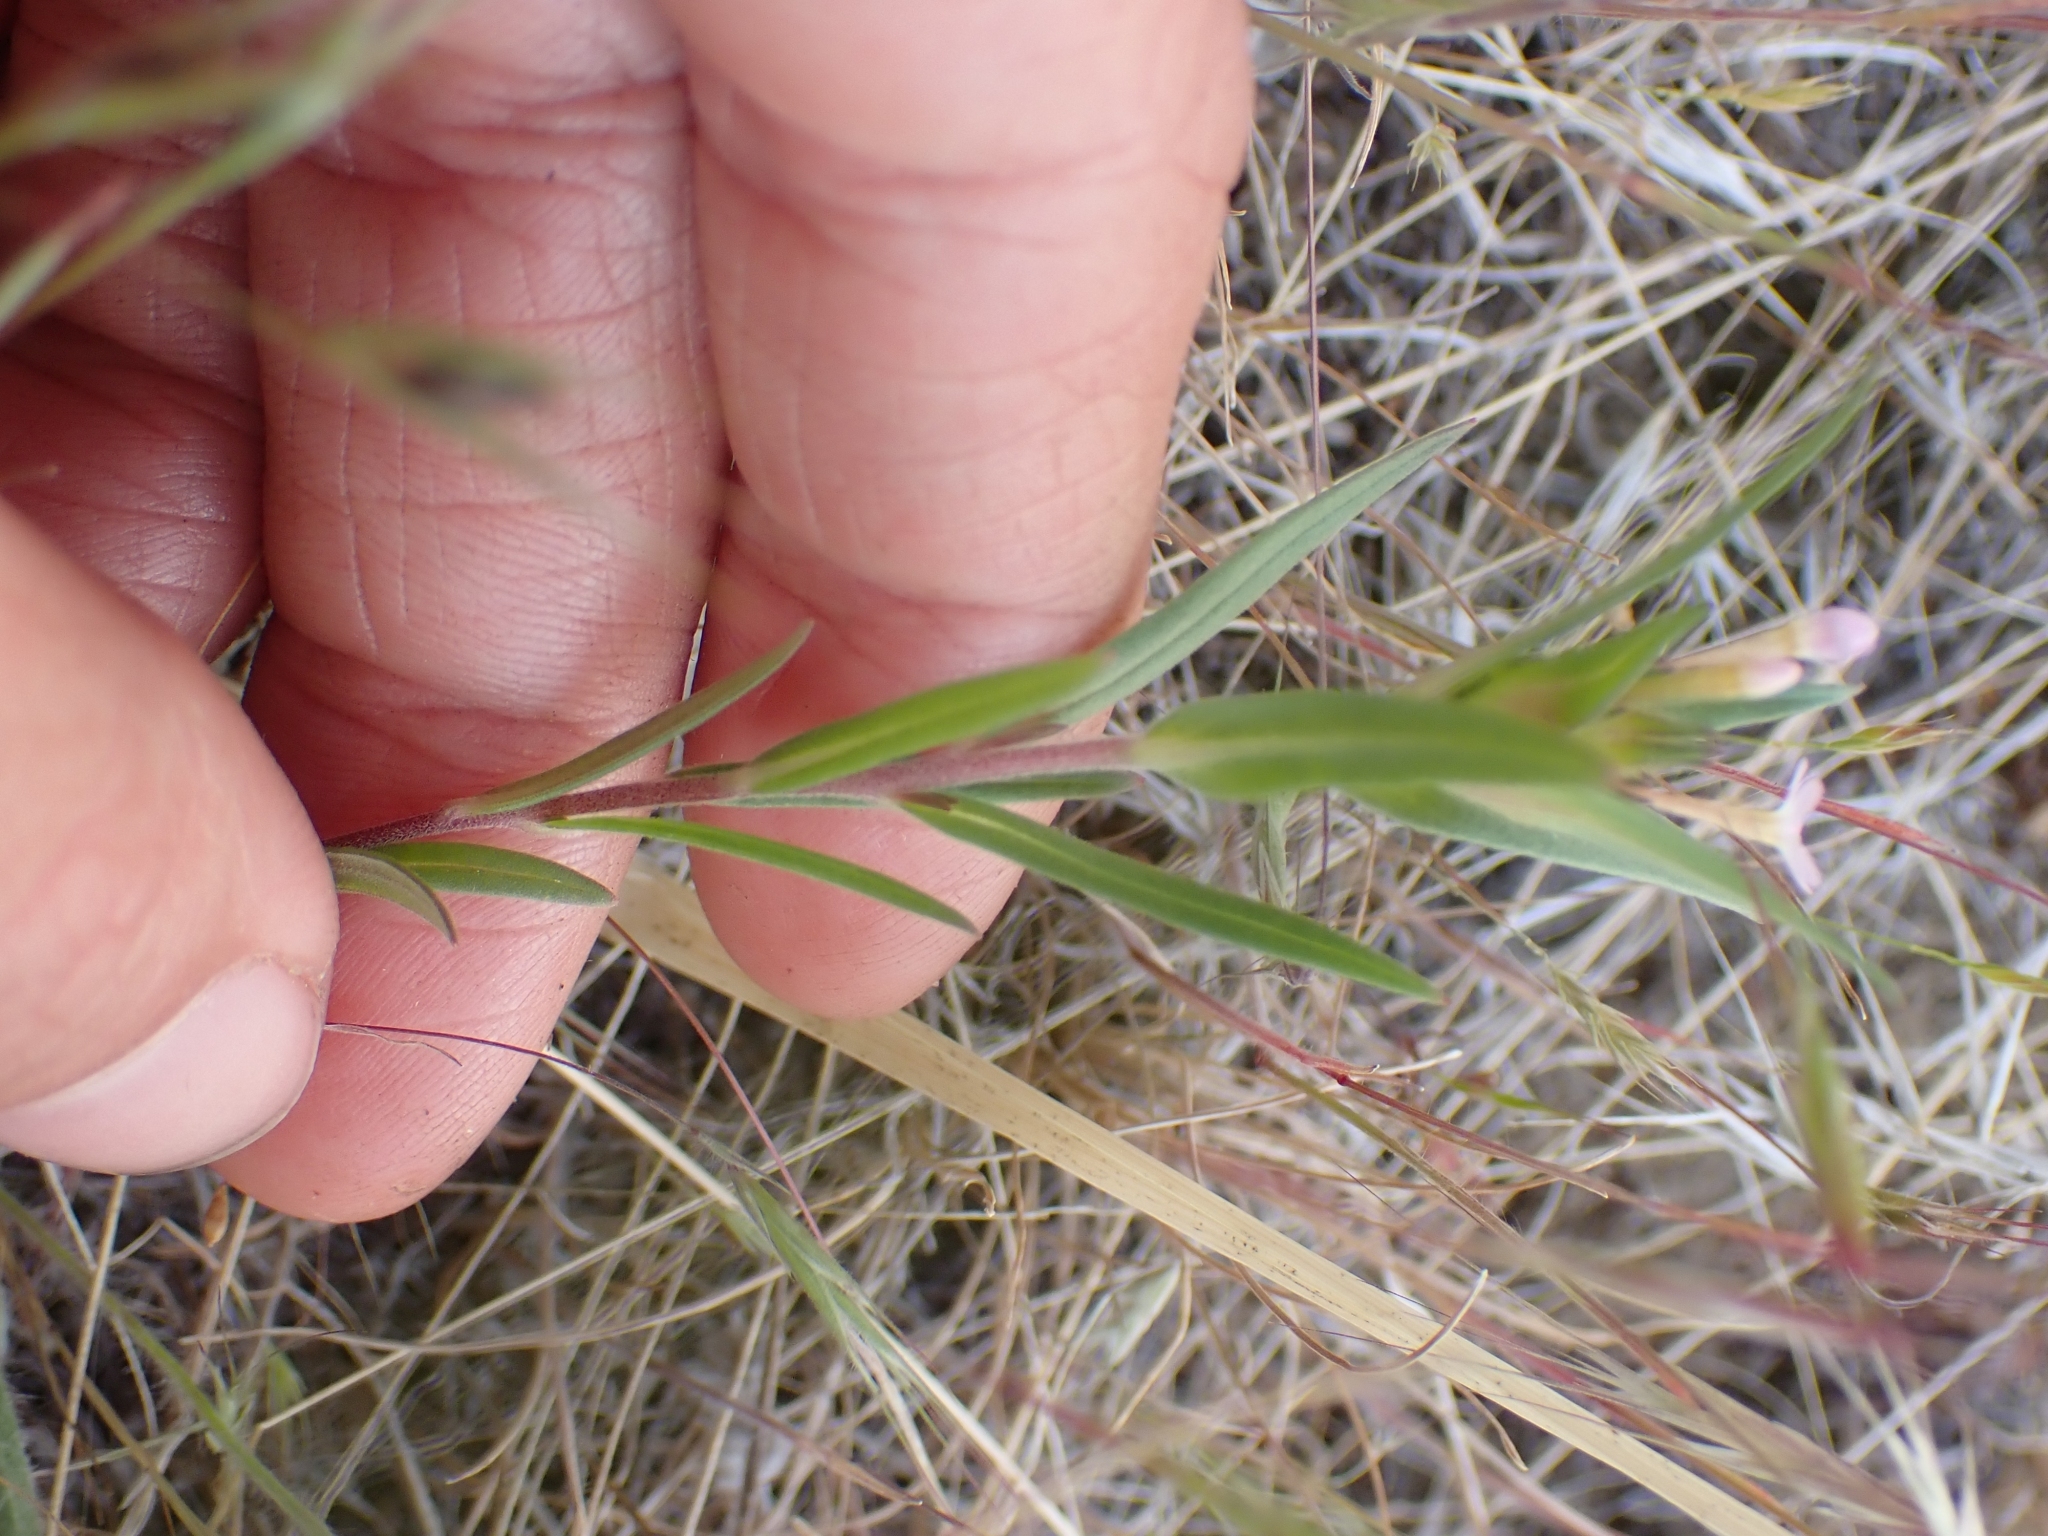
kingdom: Plantae
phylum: Tracheophyta
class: Magnoliopsida
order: Ericales
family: Polemoniaceae
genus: Collomia
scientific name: Collomia linearis
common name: Tiny trumpet
